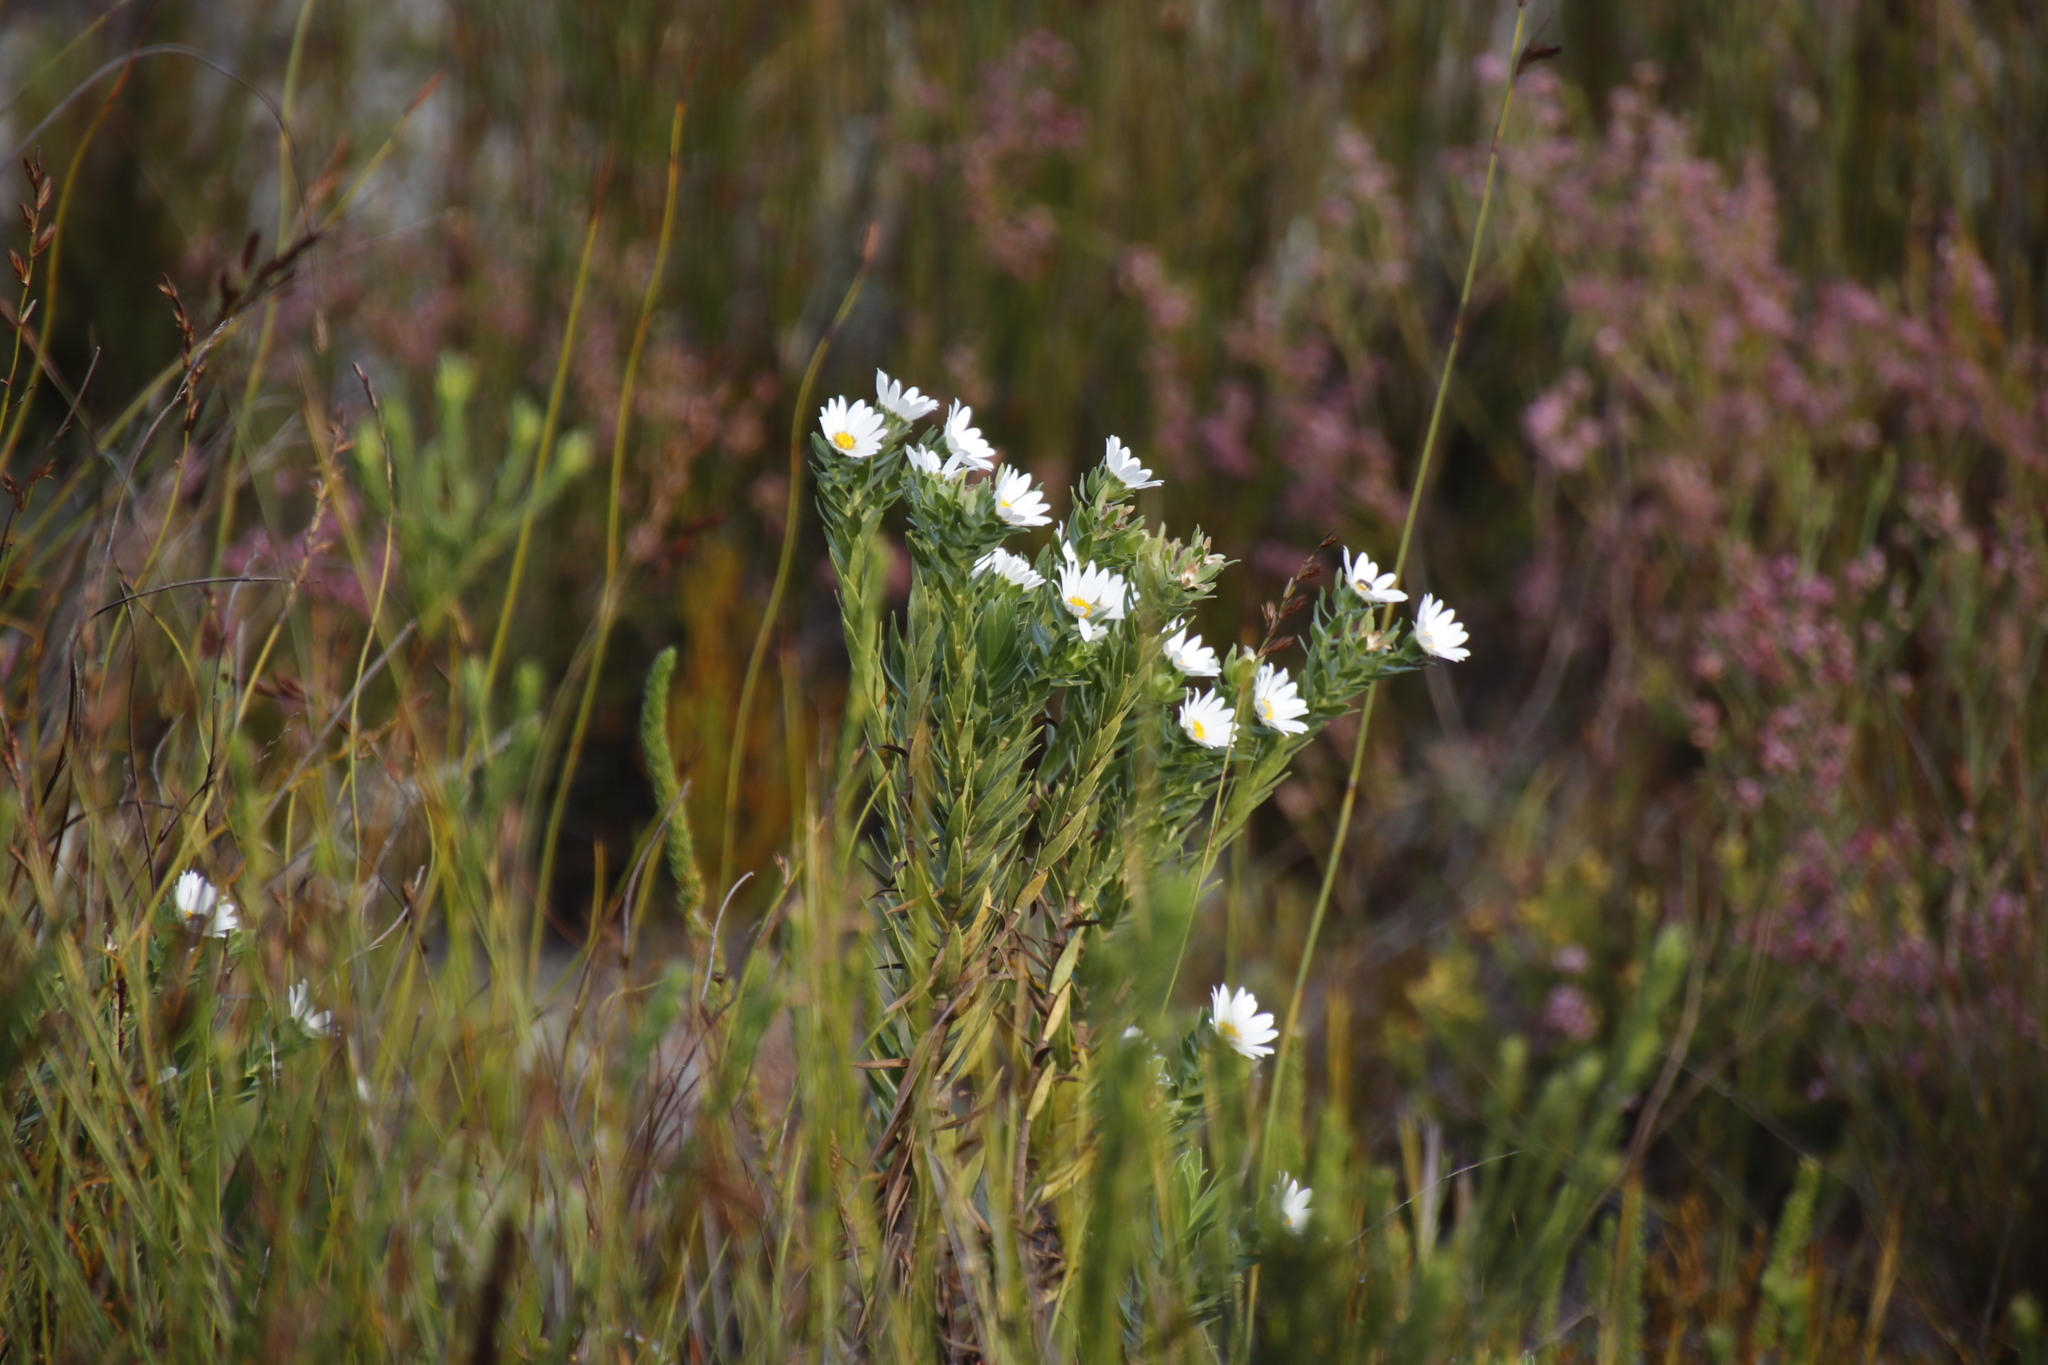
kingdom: Plantae
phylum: Tracheophyta
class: Magnoliopsida
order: Asterales
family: Asteraceae
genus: Osmitopsis
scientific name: Osmitopsis asteriscoides
